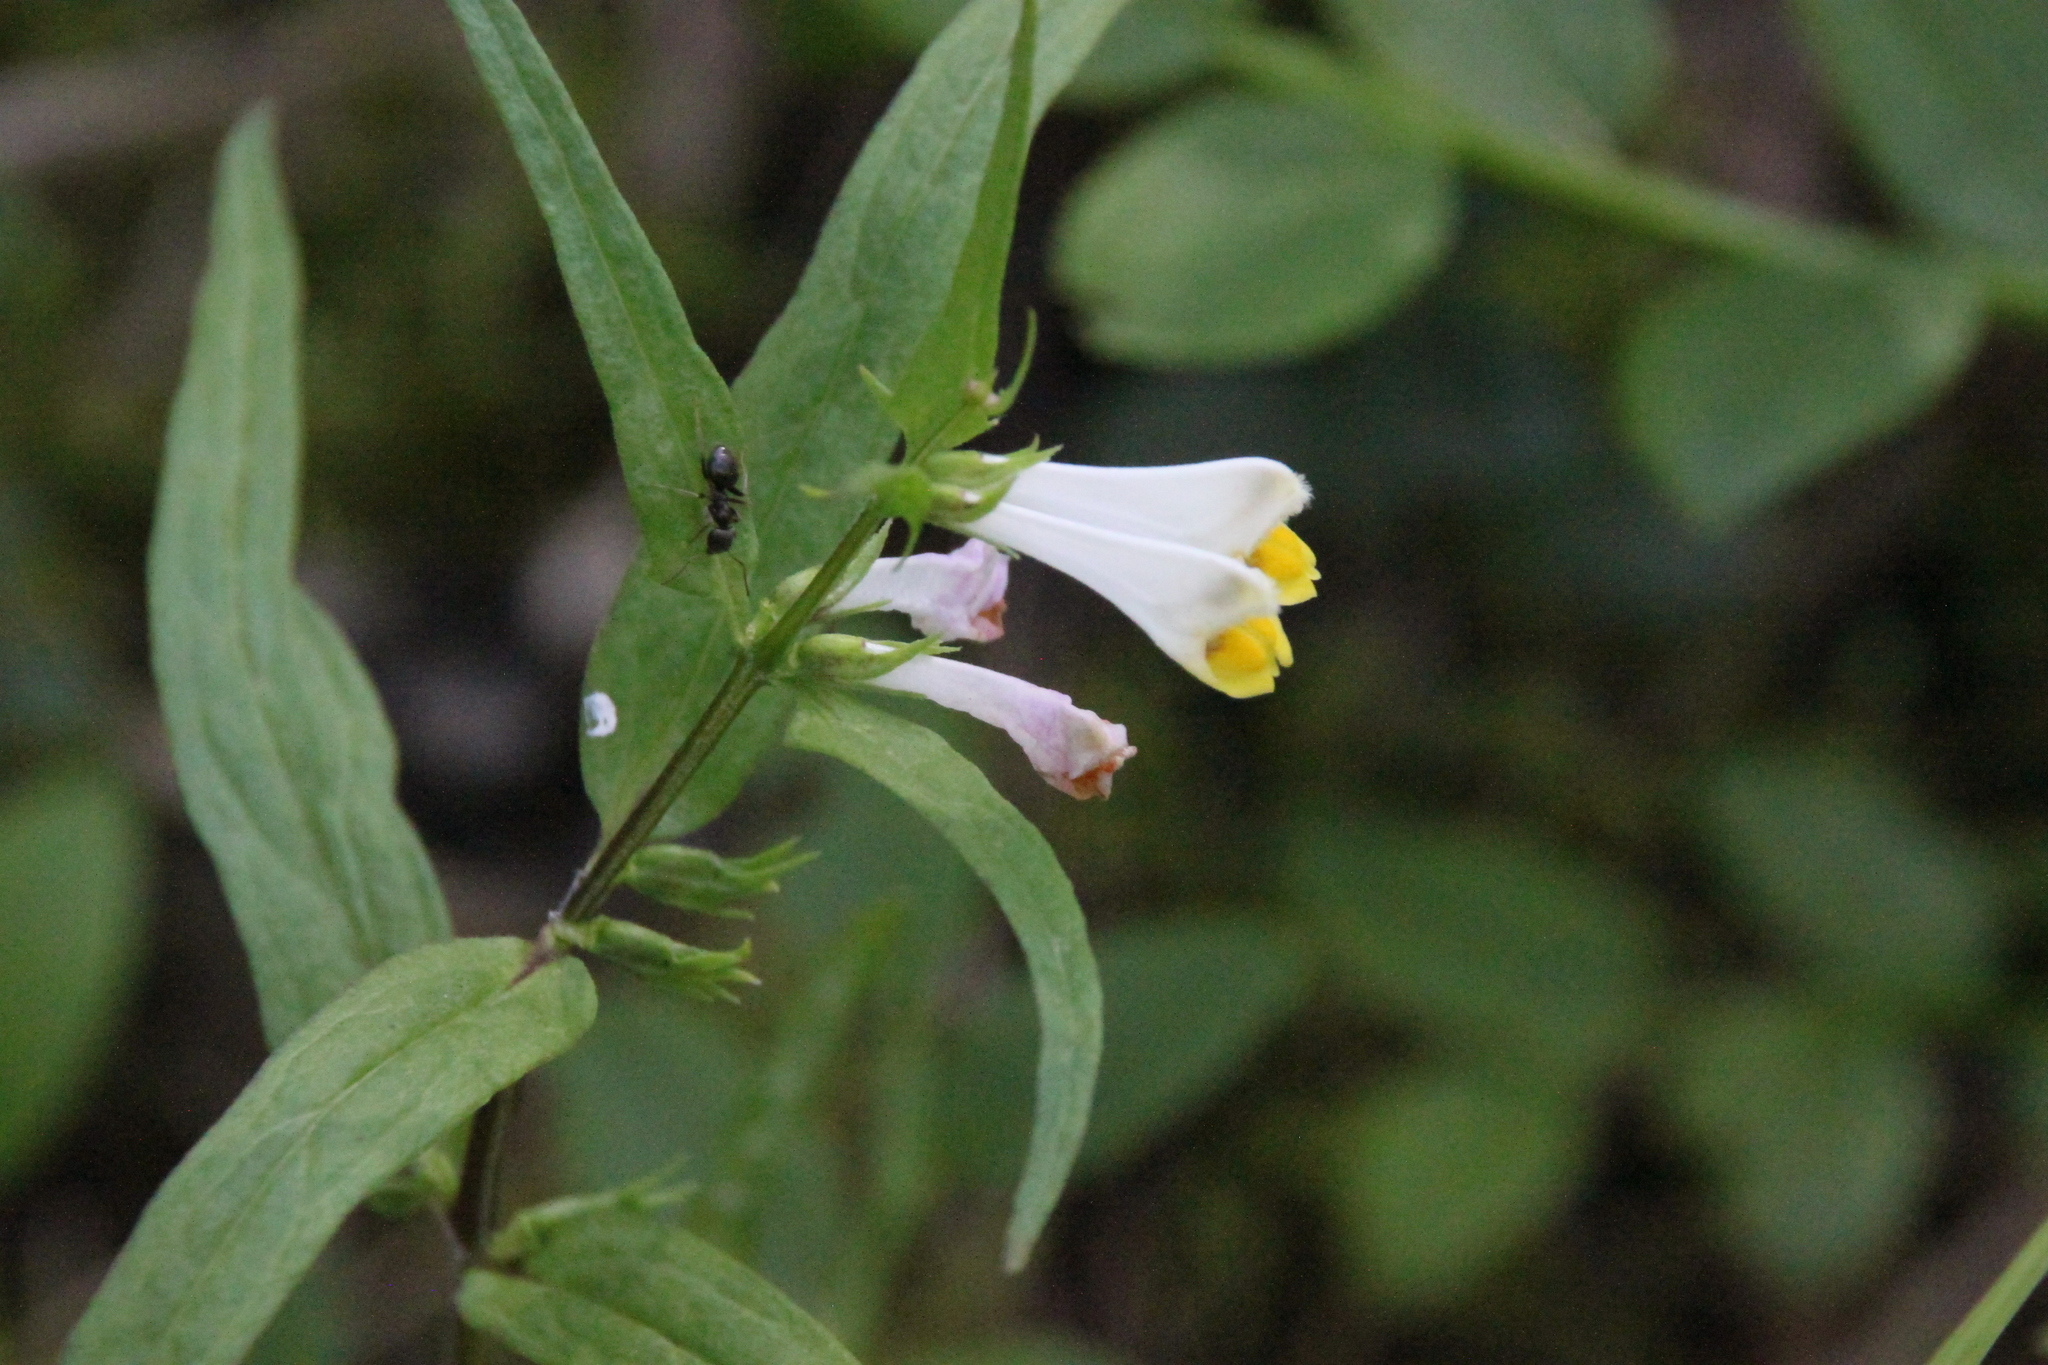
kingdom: Plantae
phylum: Tracheophyta
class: Magnoliopsida
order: Lamiales
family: Orobanchaceae
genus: Melampyrum
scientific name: Melampyrum pratense
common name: Common cow-wheat
